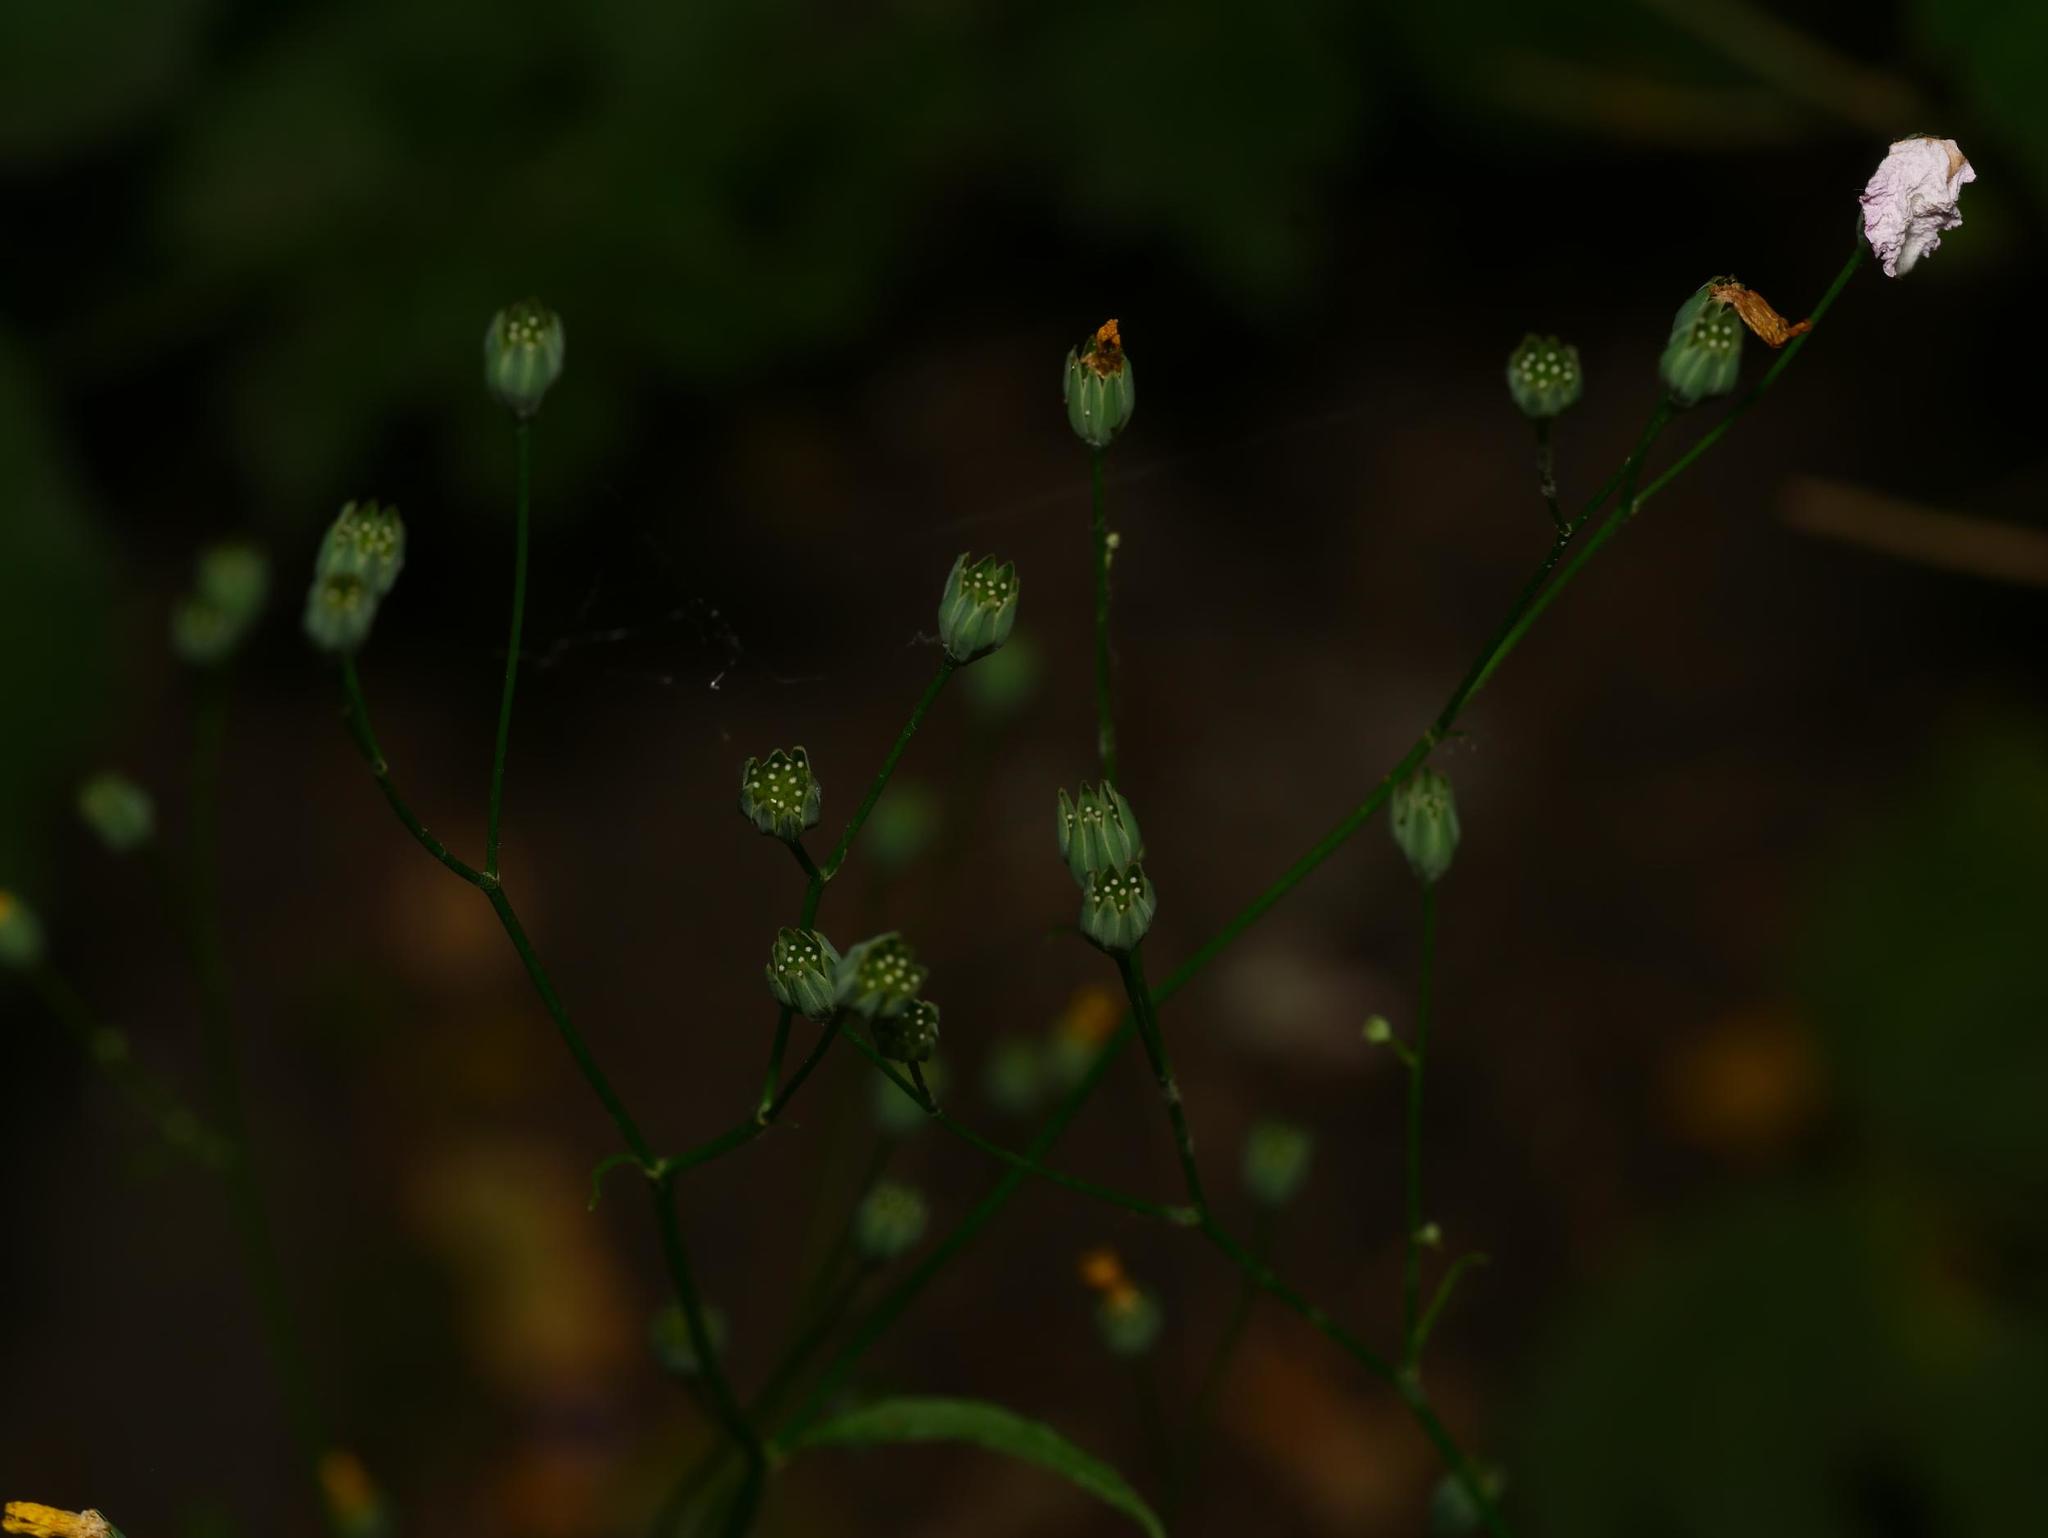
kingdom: Plantae
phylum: Tracheophyta
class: Magnoliopsida
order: Asterales
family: Asteraceae
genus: Lapsana
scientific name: Lapsana communis
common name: Nipplewort
